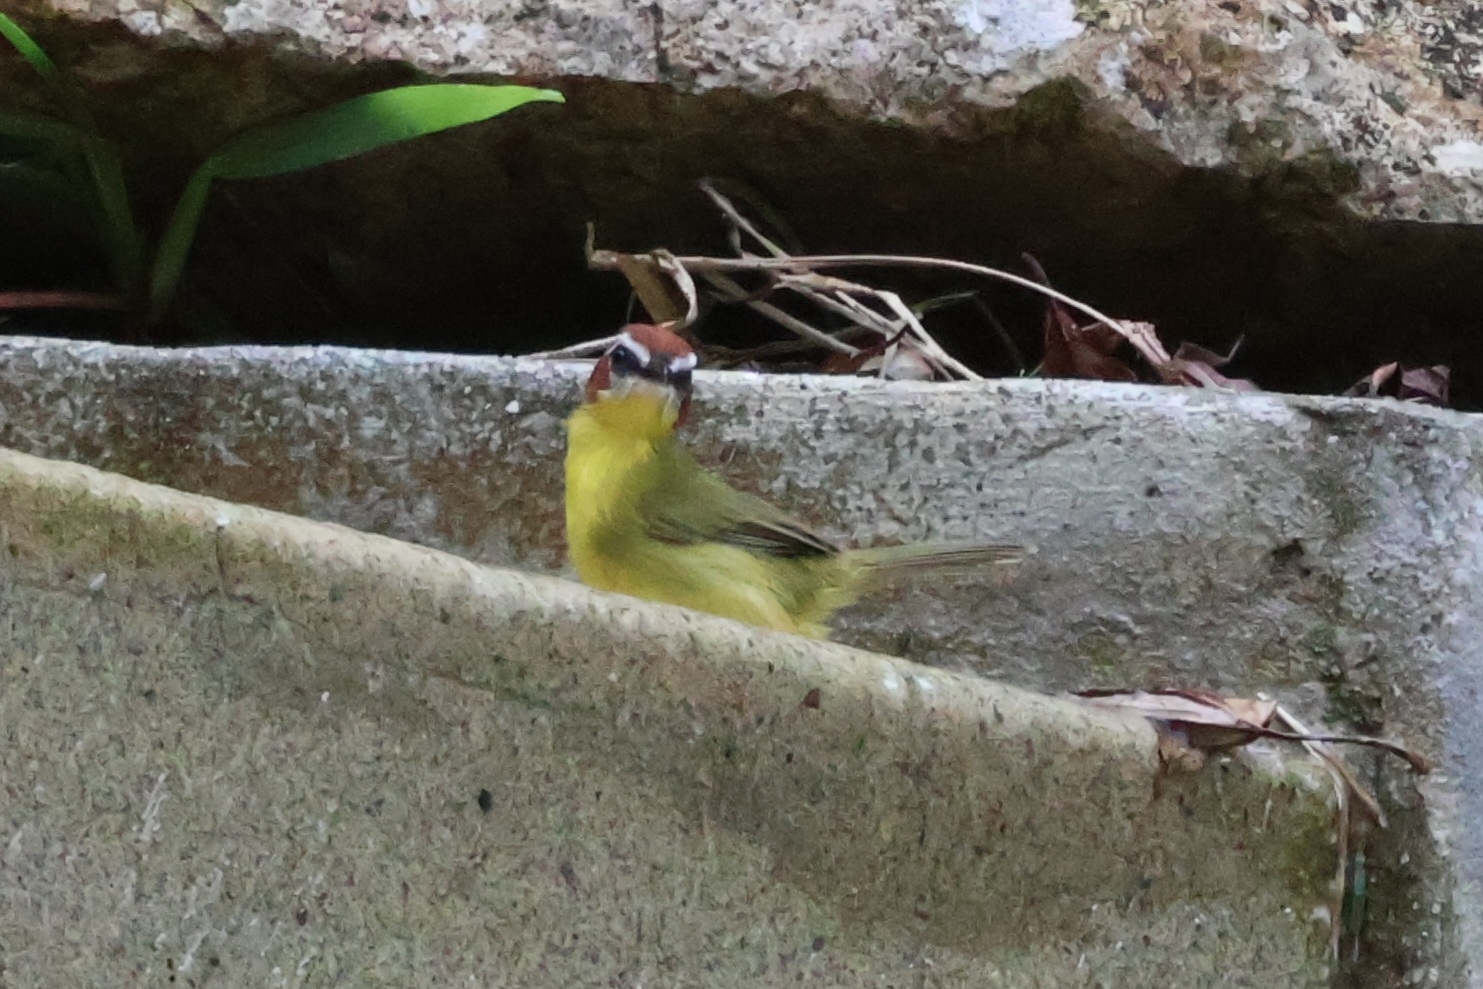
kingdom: Animalia
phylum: Chordata
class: Aves
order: Passeriformes
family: Parulidae
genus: Basileuterus
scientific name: Basileuterus rufifrons
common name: Rufous-capped warbler
